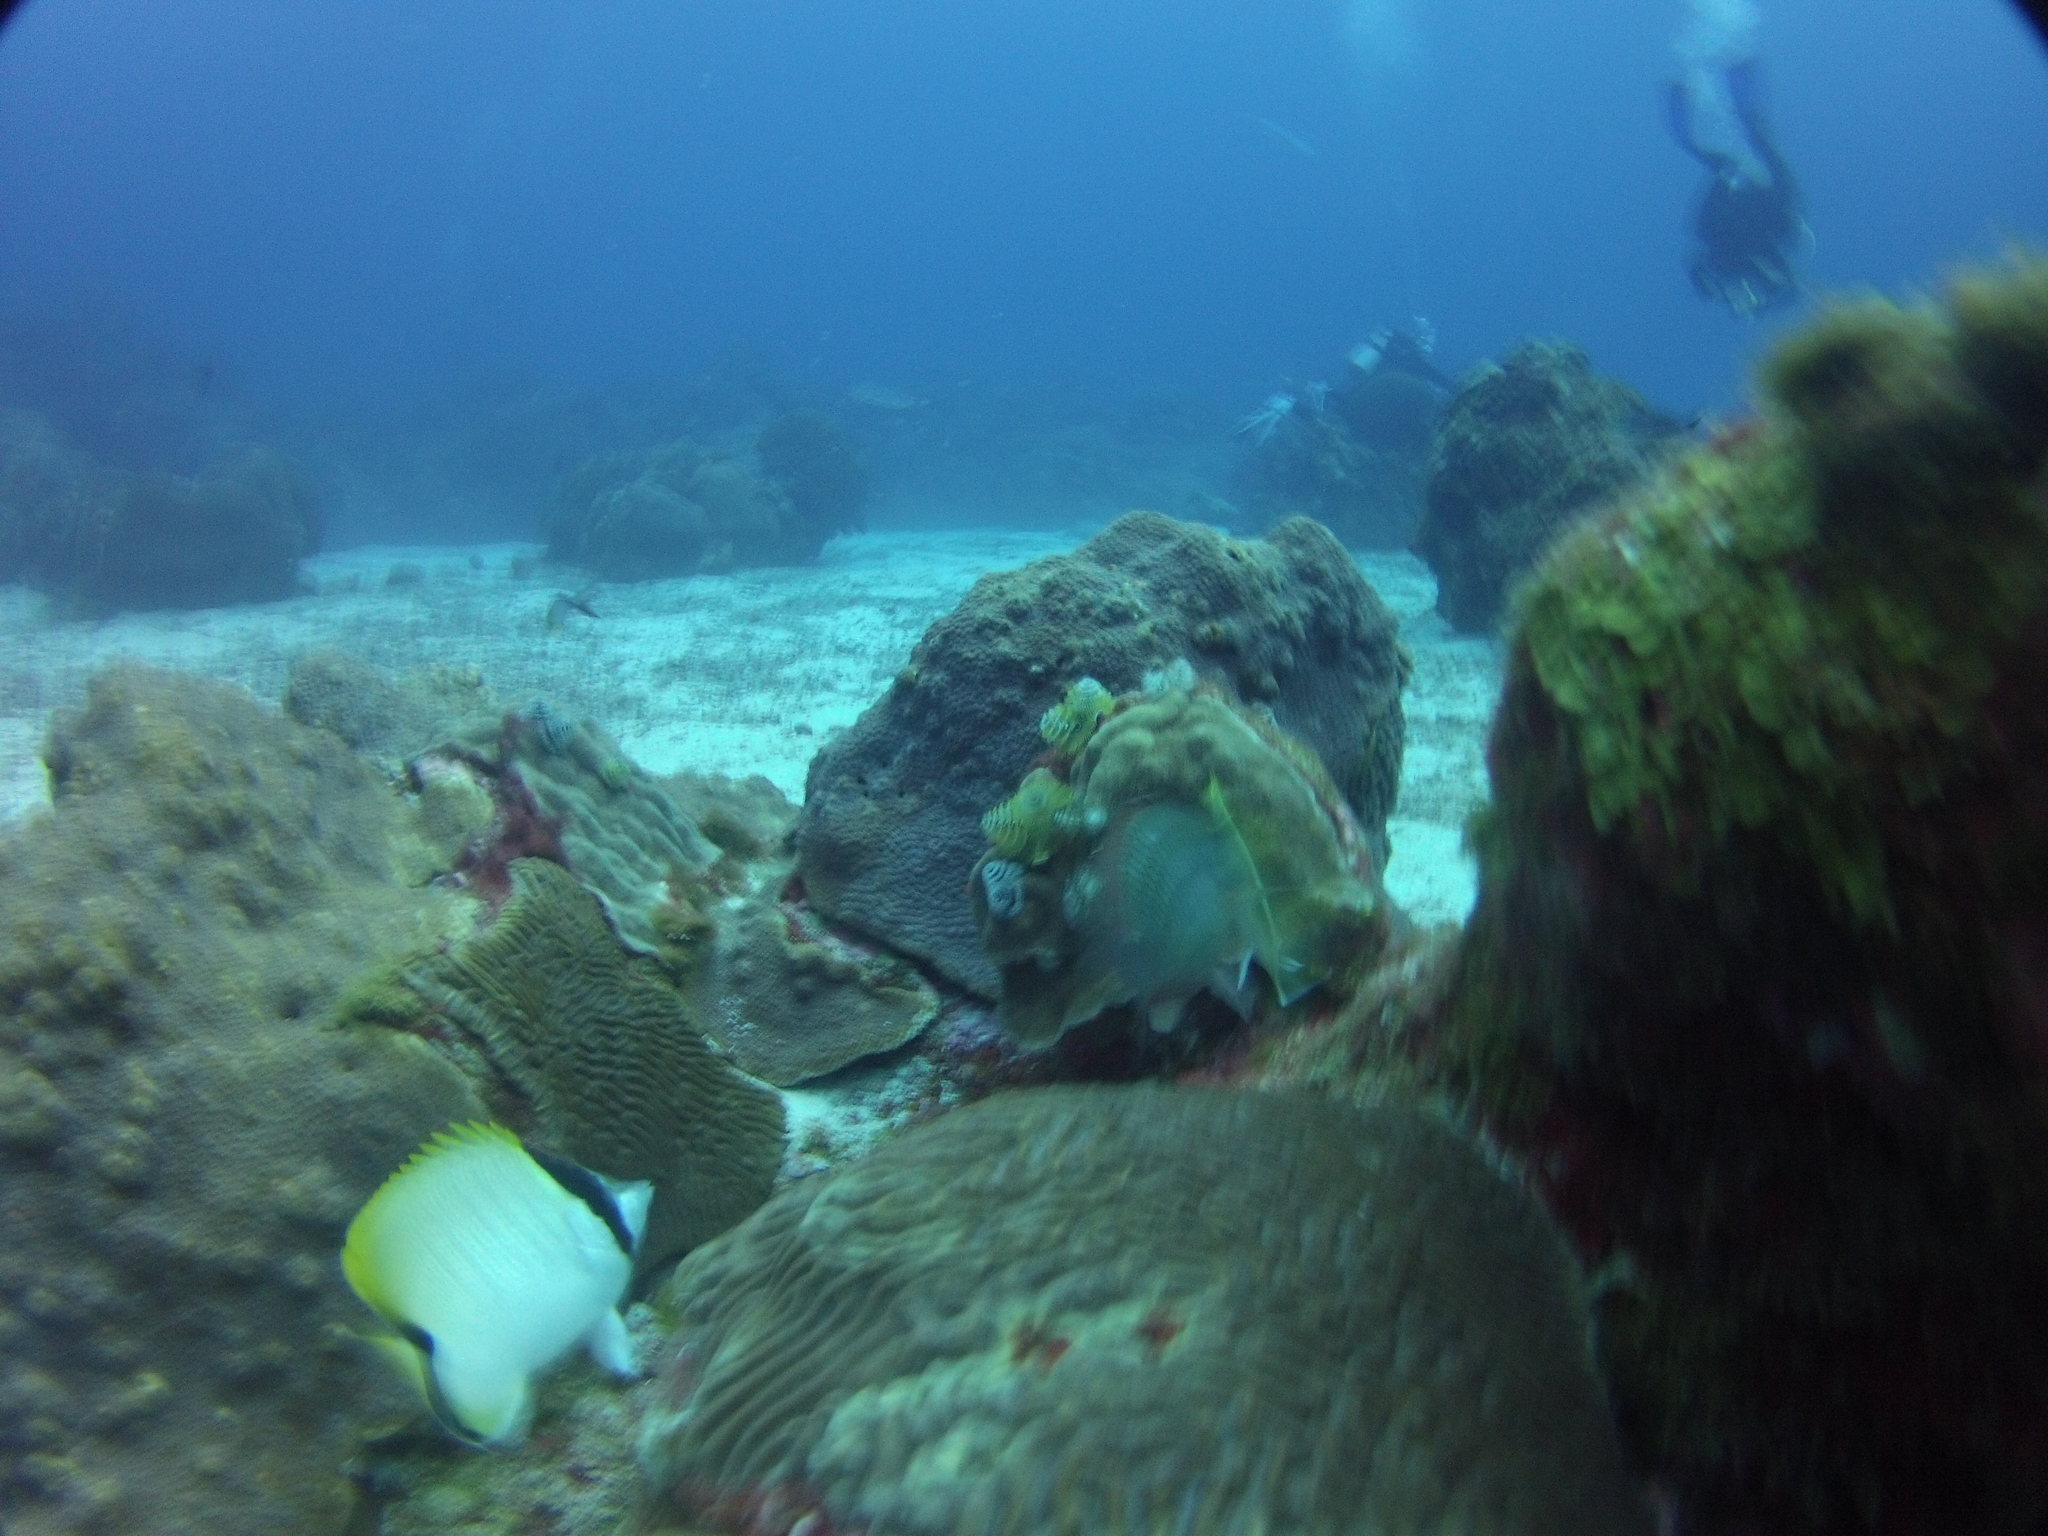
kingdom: Animalia
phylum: Chordata
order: Perciformes
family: Chaetodontidae
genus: Chaetodon
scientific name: Chaetodon sedentarius
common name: Reef butterflyfish
